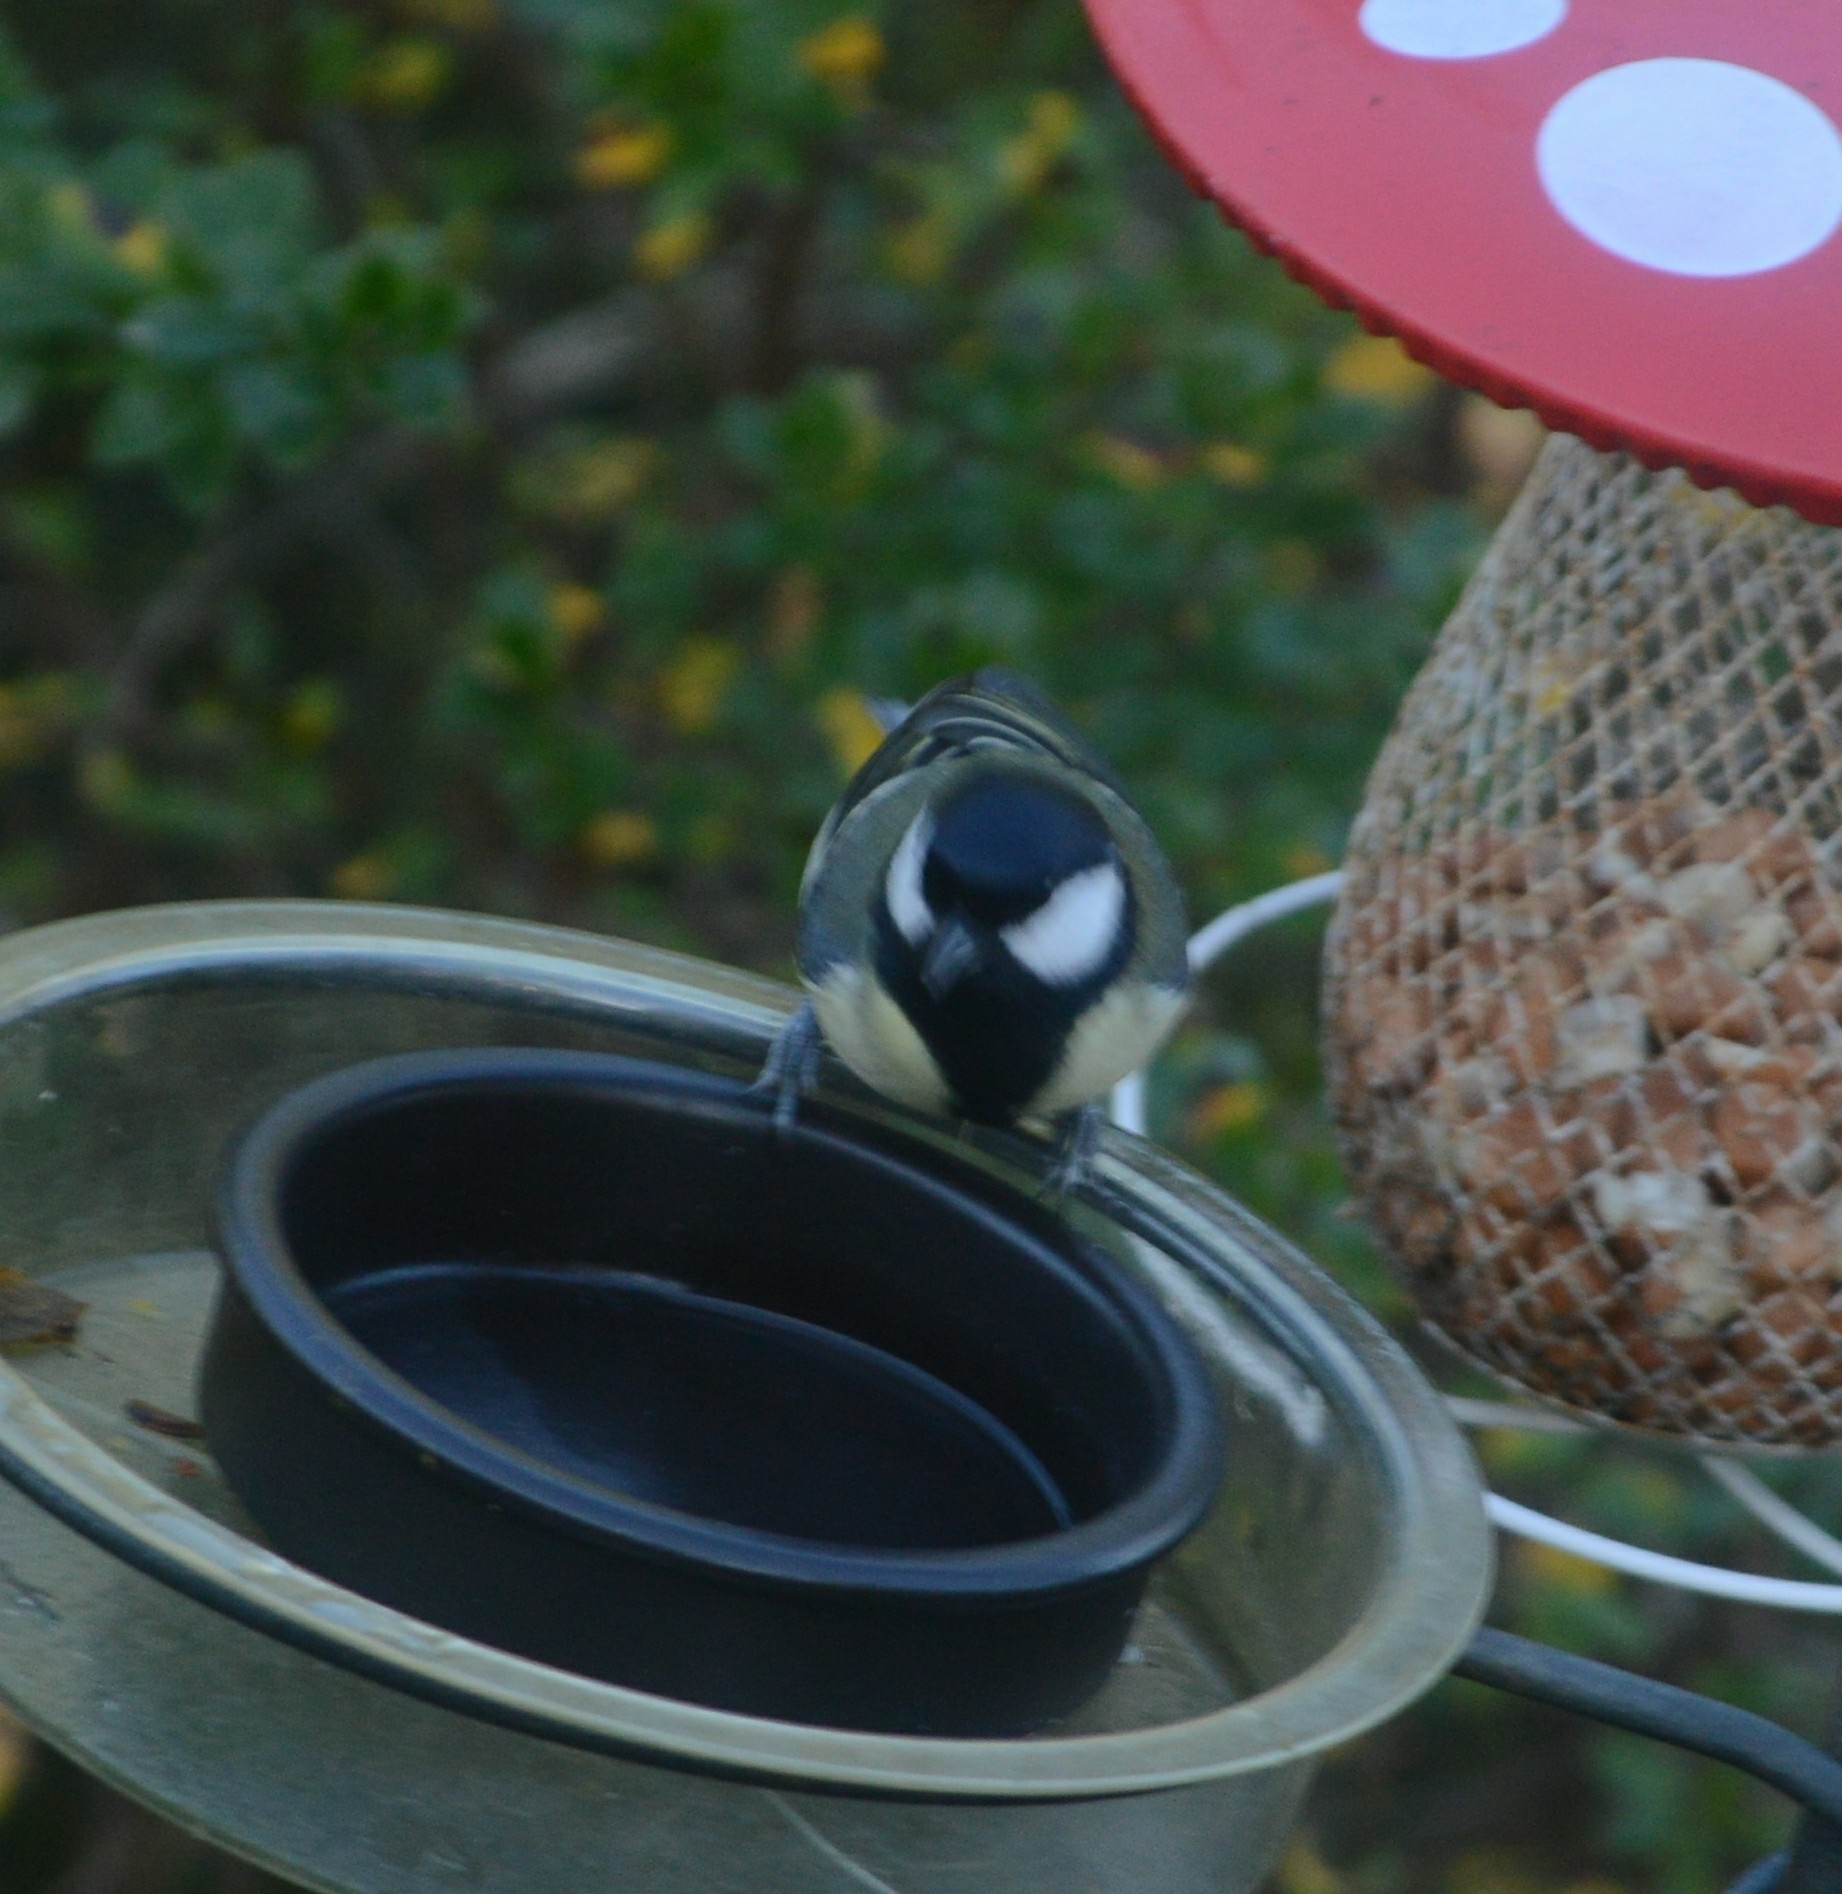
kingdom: Animalia
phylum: Chordata
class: Aves
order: Passeriformes
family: Paridae
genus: Parus
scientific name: Parus major
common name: Great tit
